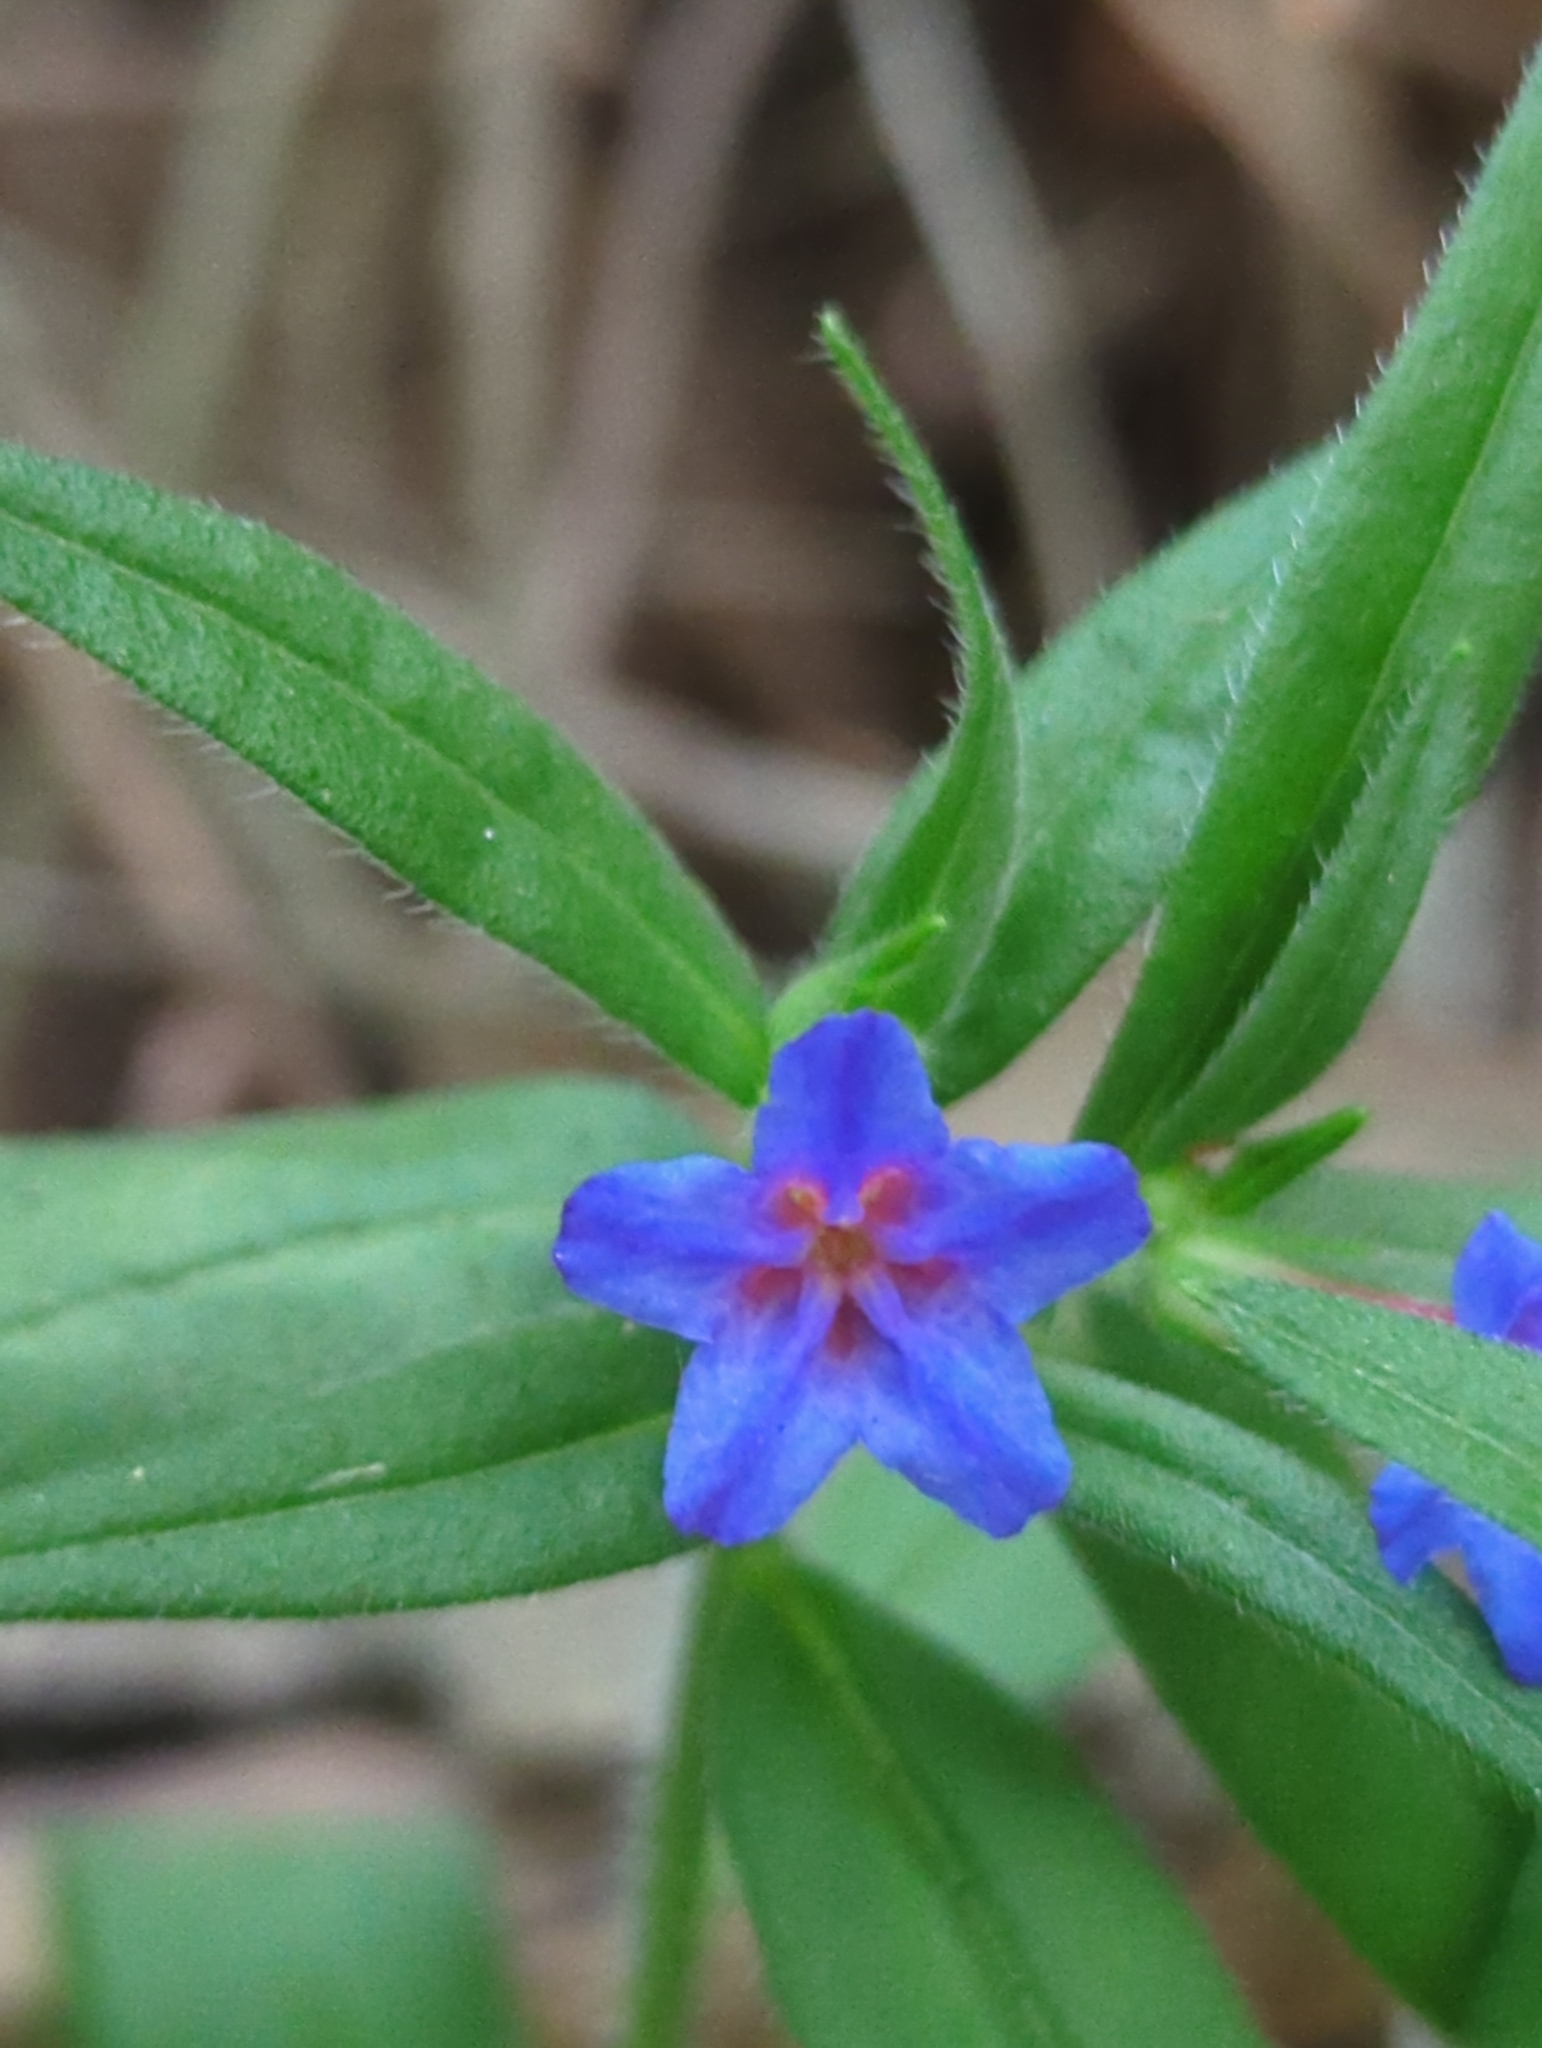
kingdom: Plantae
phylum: Tracheophyta
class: Magnoliopsida
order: Boraginales
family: Boraginaceae
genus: Aegonychon
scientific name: Aegonychon purpurocaeruleum
